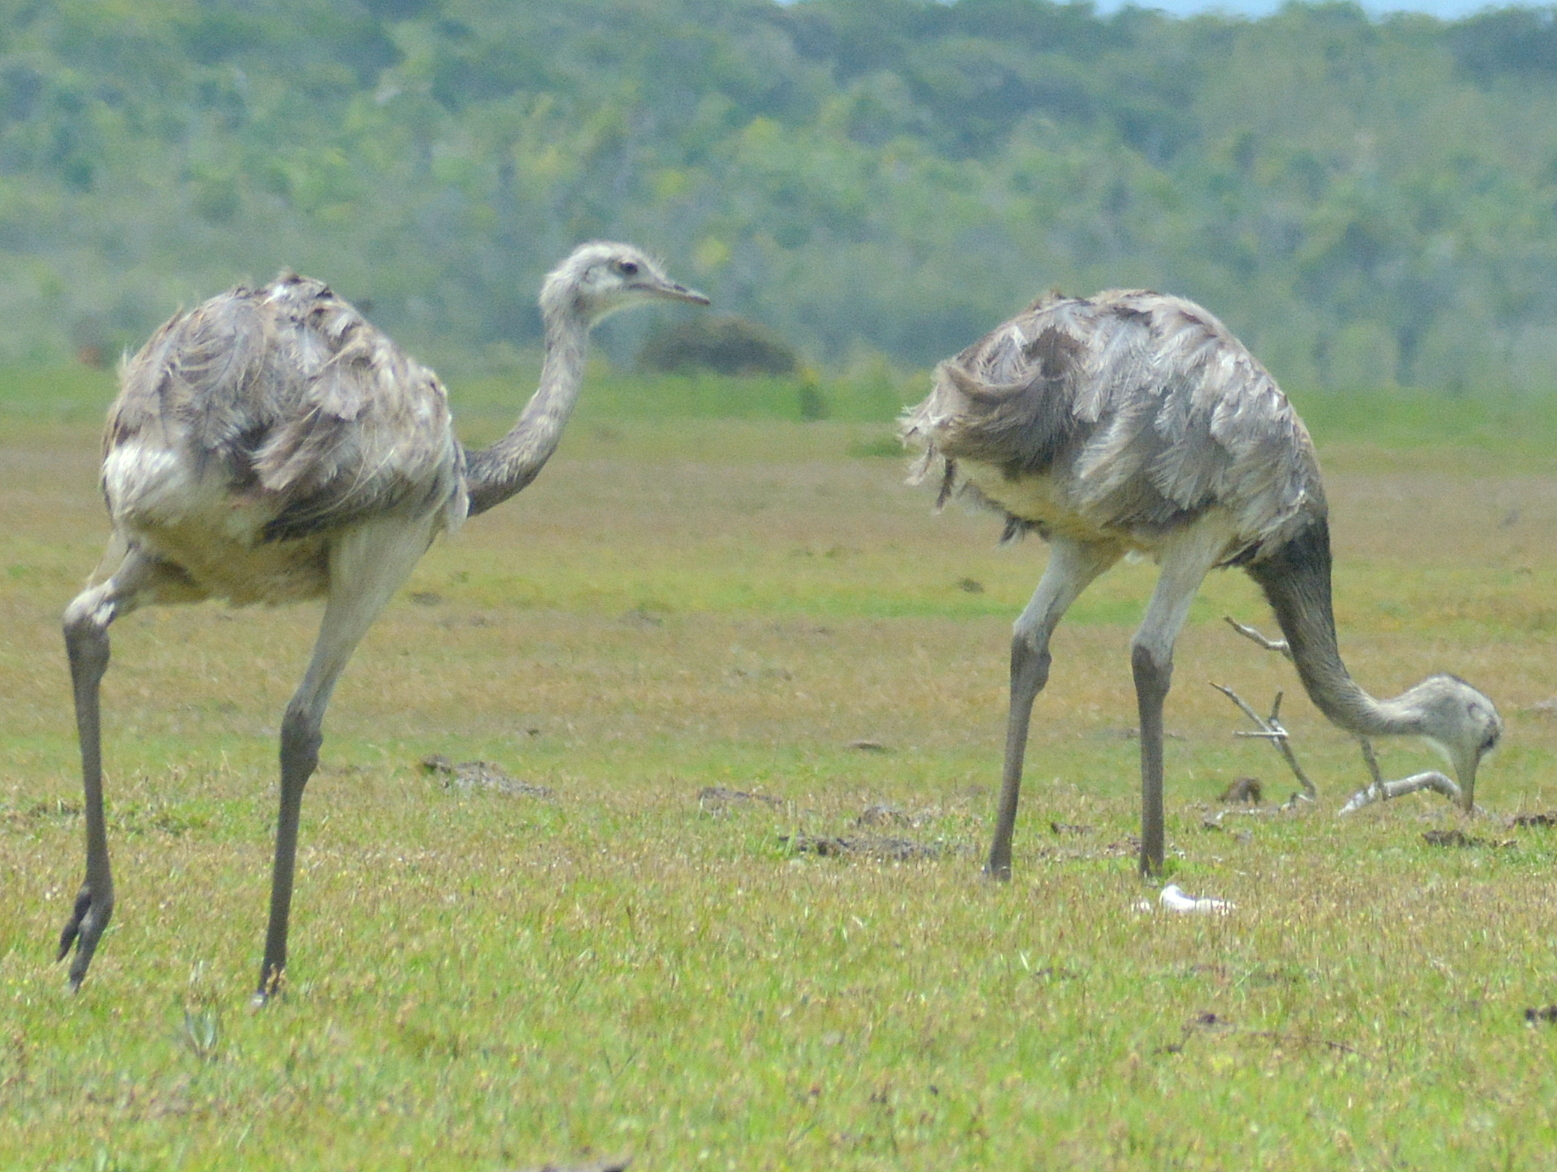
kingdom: Animalia
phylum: Chordata
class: Aves
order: Rheiformes
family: Rheidae
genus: Rhea
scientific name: Rhea americana
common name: Greater rhea
